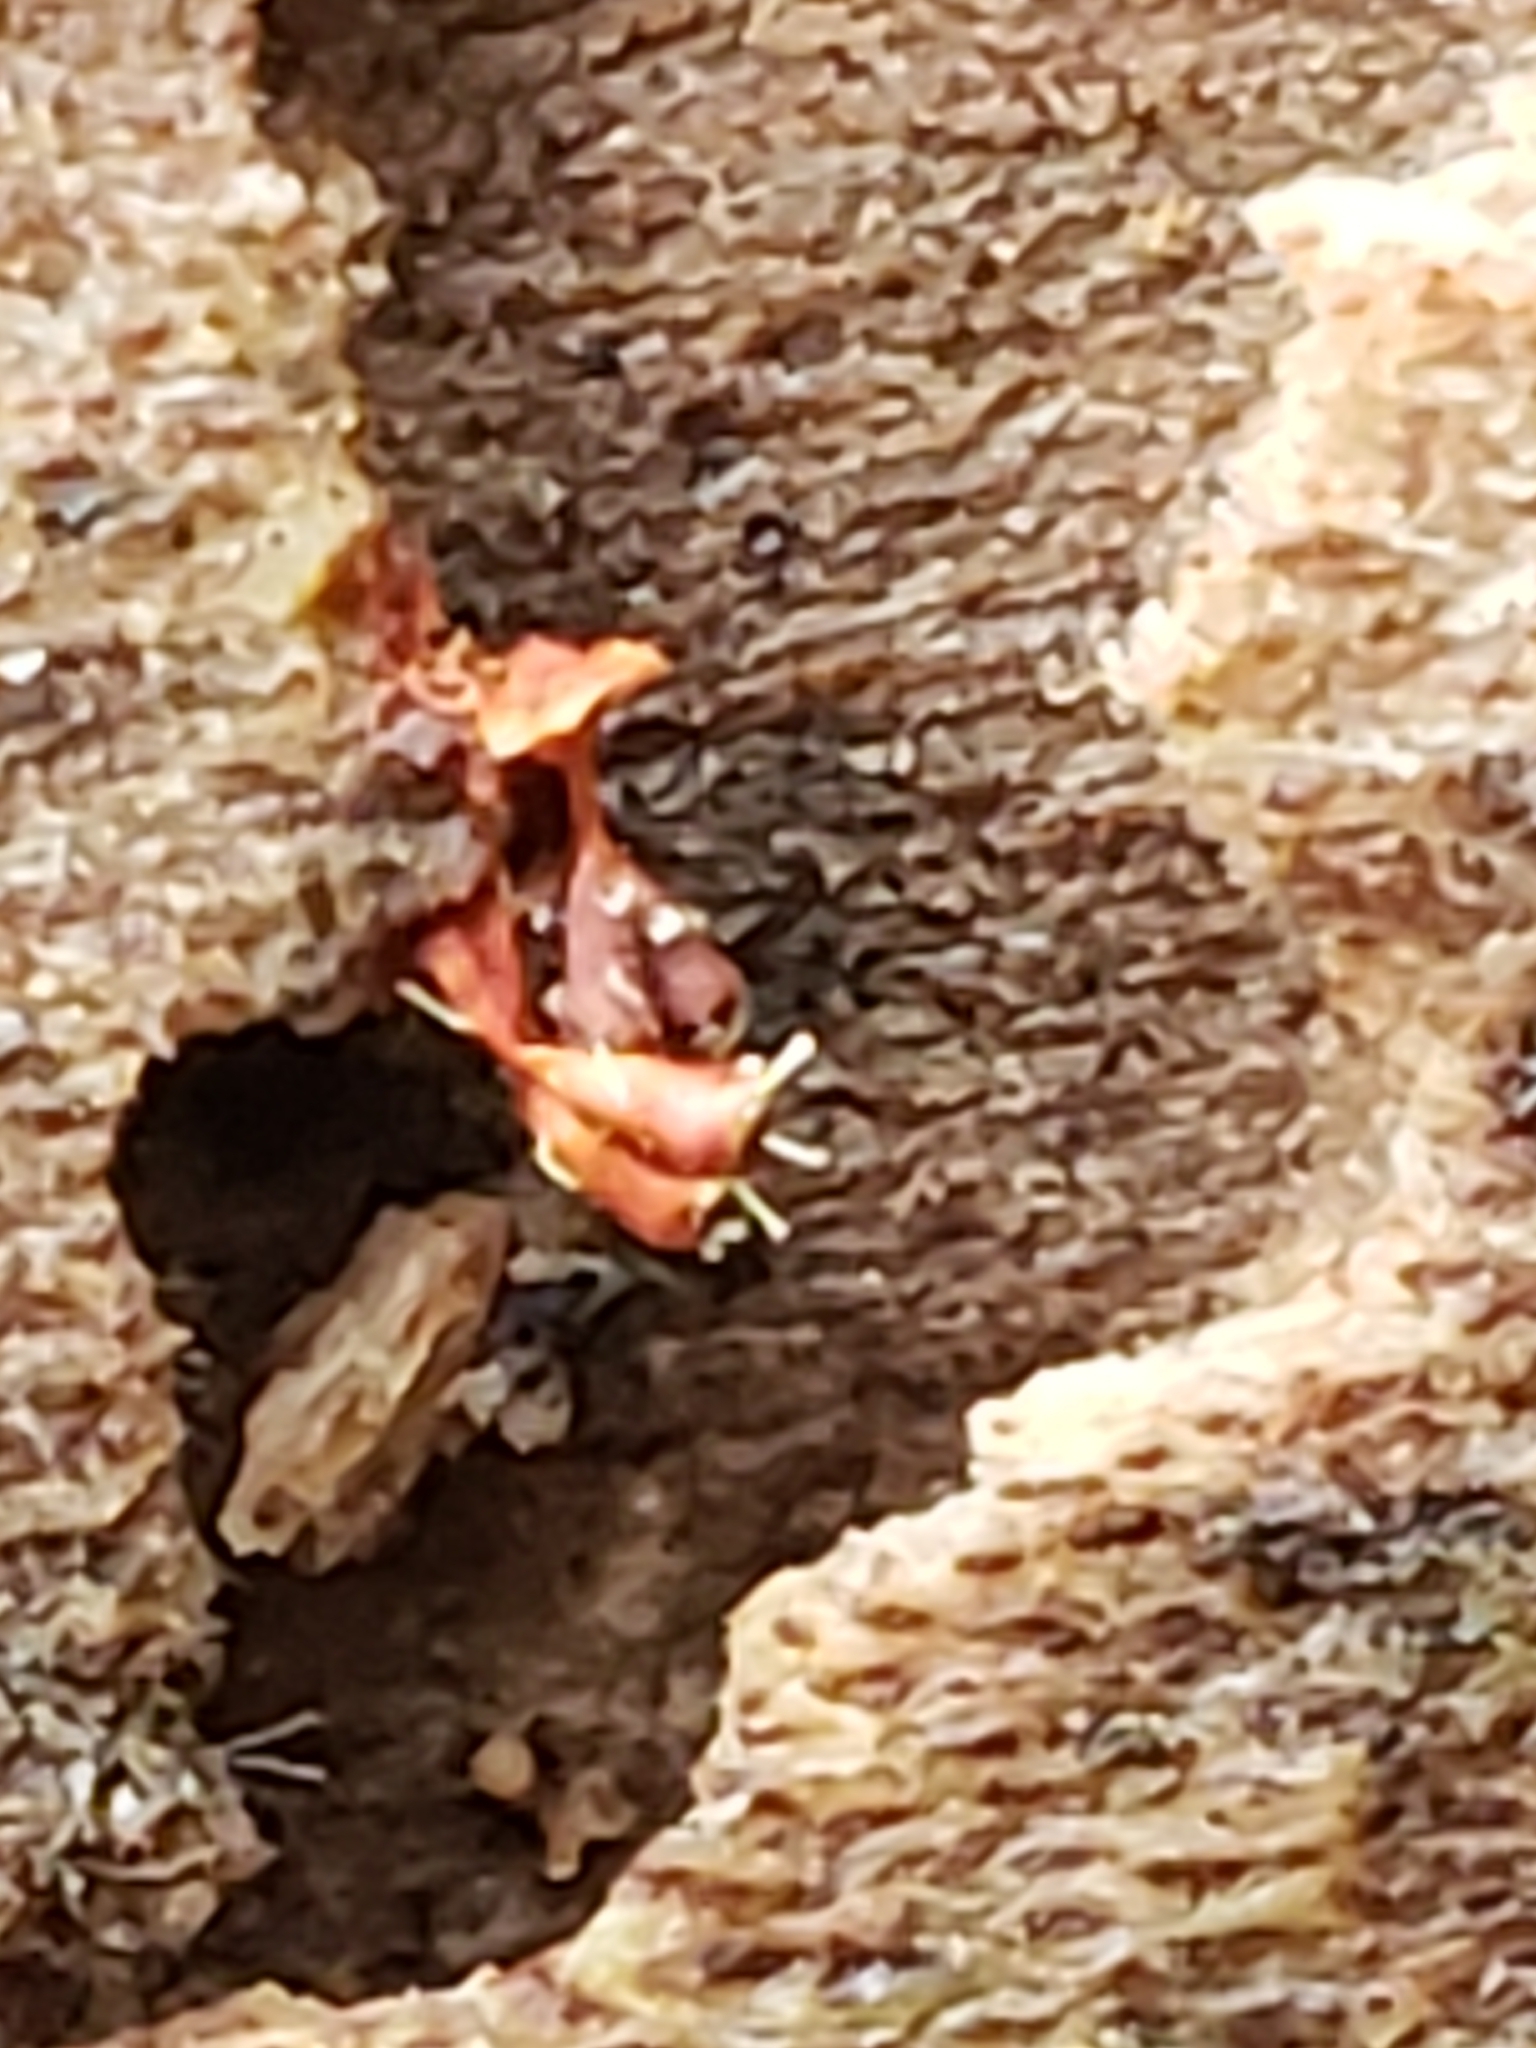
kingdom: Fungi
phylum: Ascomycota
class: Sordariomycetes
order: Hypocreales
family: Ophiocordycipitaceae
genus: Polycephalomyces
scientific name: Polycephalomyces tomentosus
